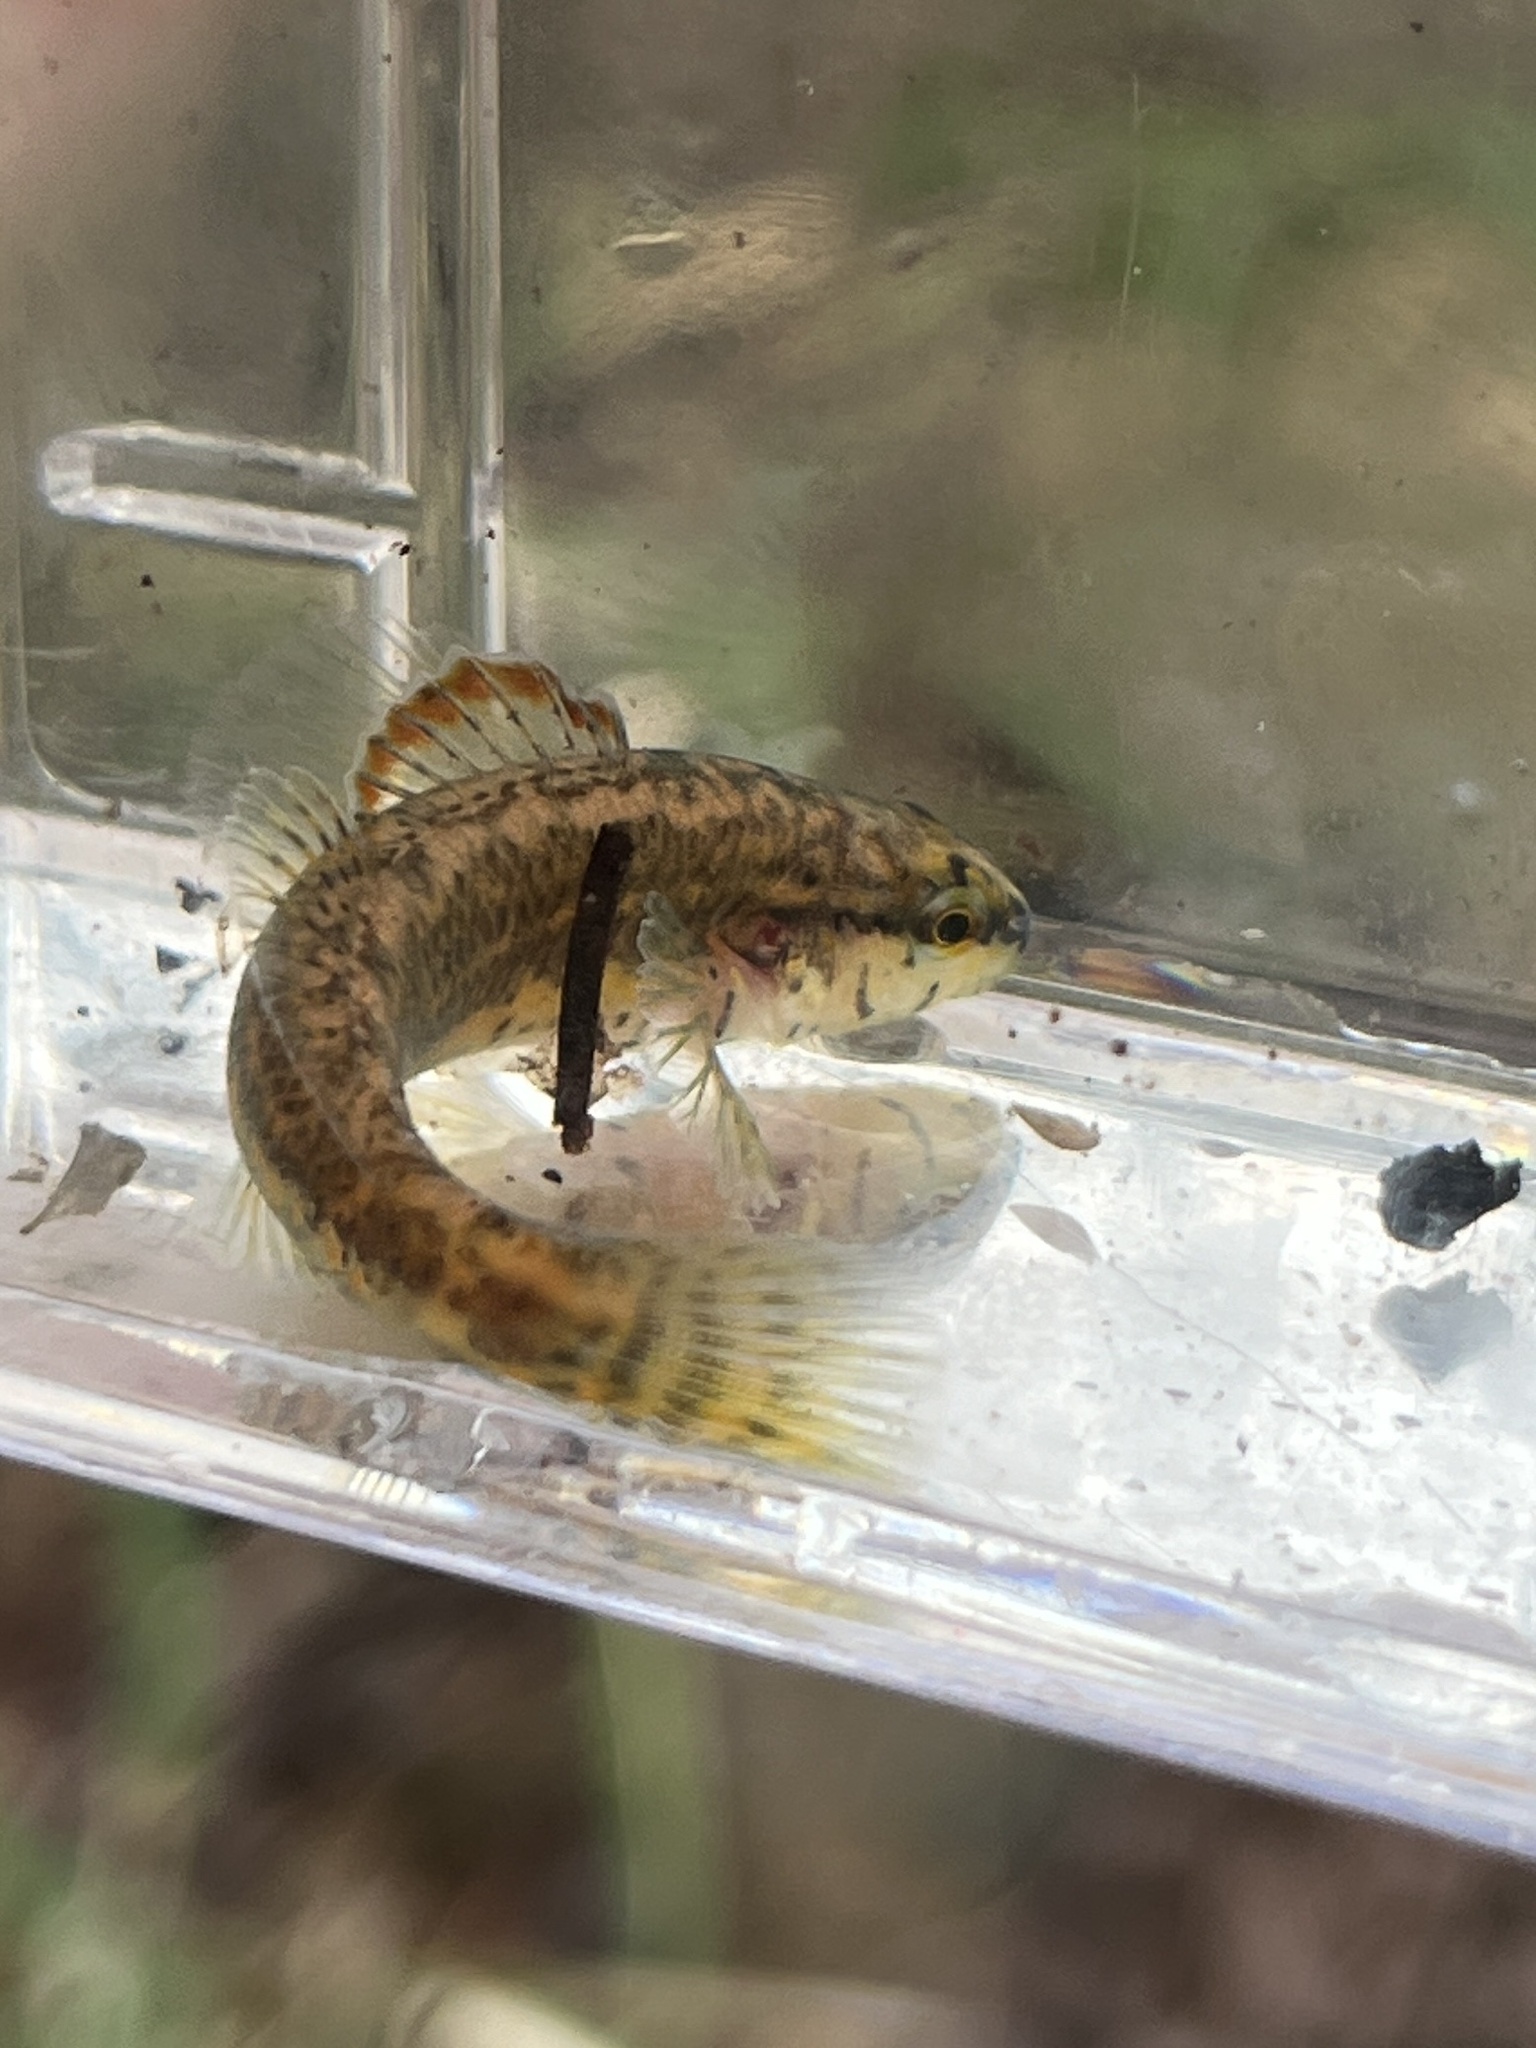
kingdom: Animalia
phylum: Chordata
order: Perciformes
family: Percidae
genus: Etheostoma
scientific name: Etheostoma mariae
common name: Pinewoods darter
